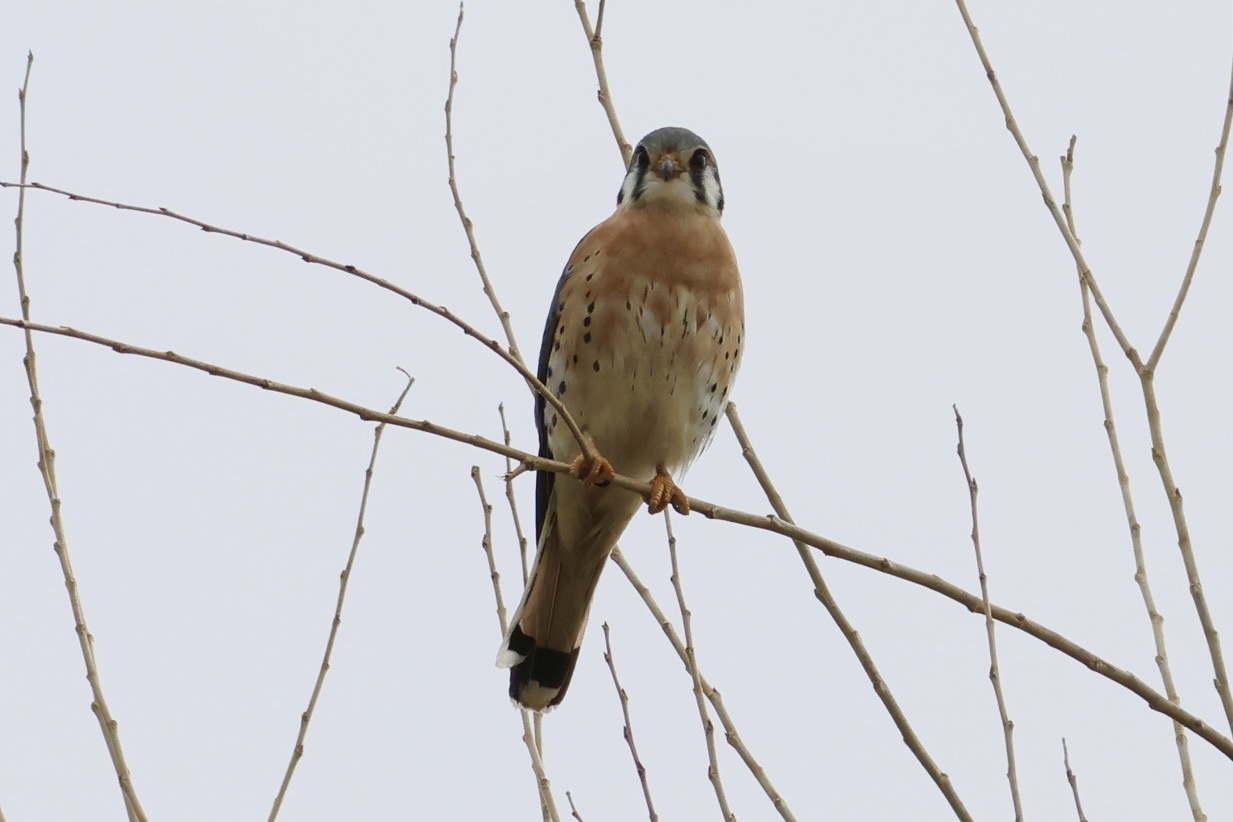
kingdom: Animalia
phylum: Chordata
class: Aves
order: Falconiformes
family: Falconidae
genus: Falco
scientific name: Falco sparverius
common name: American kestrel
